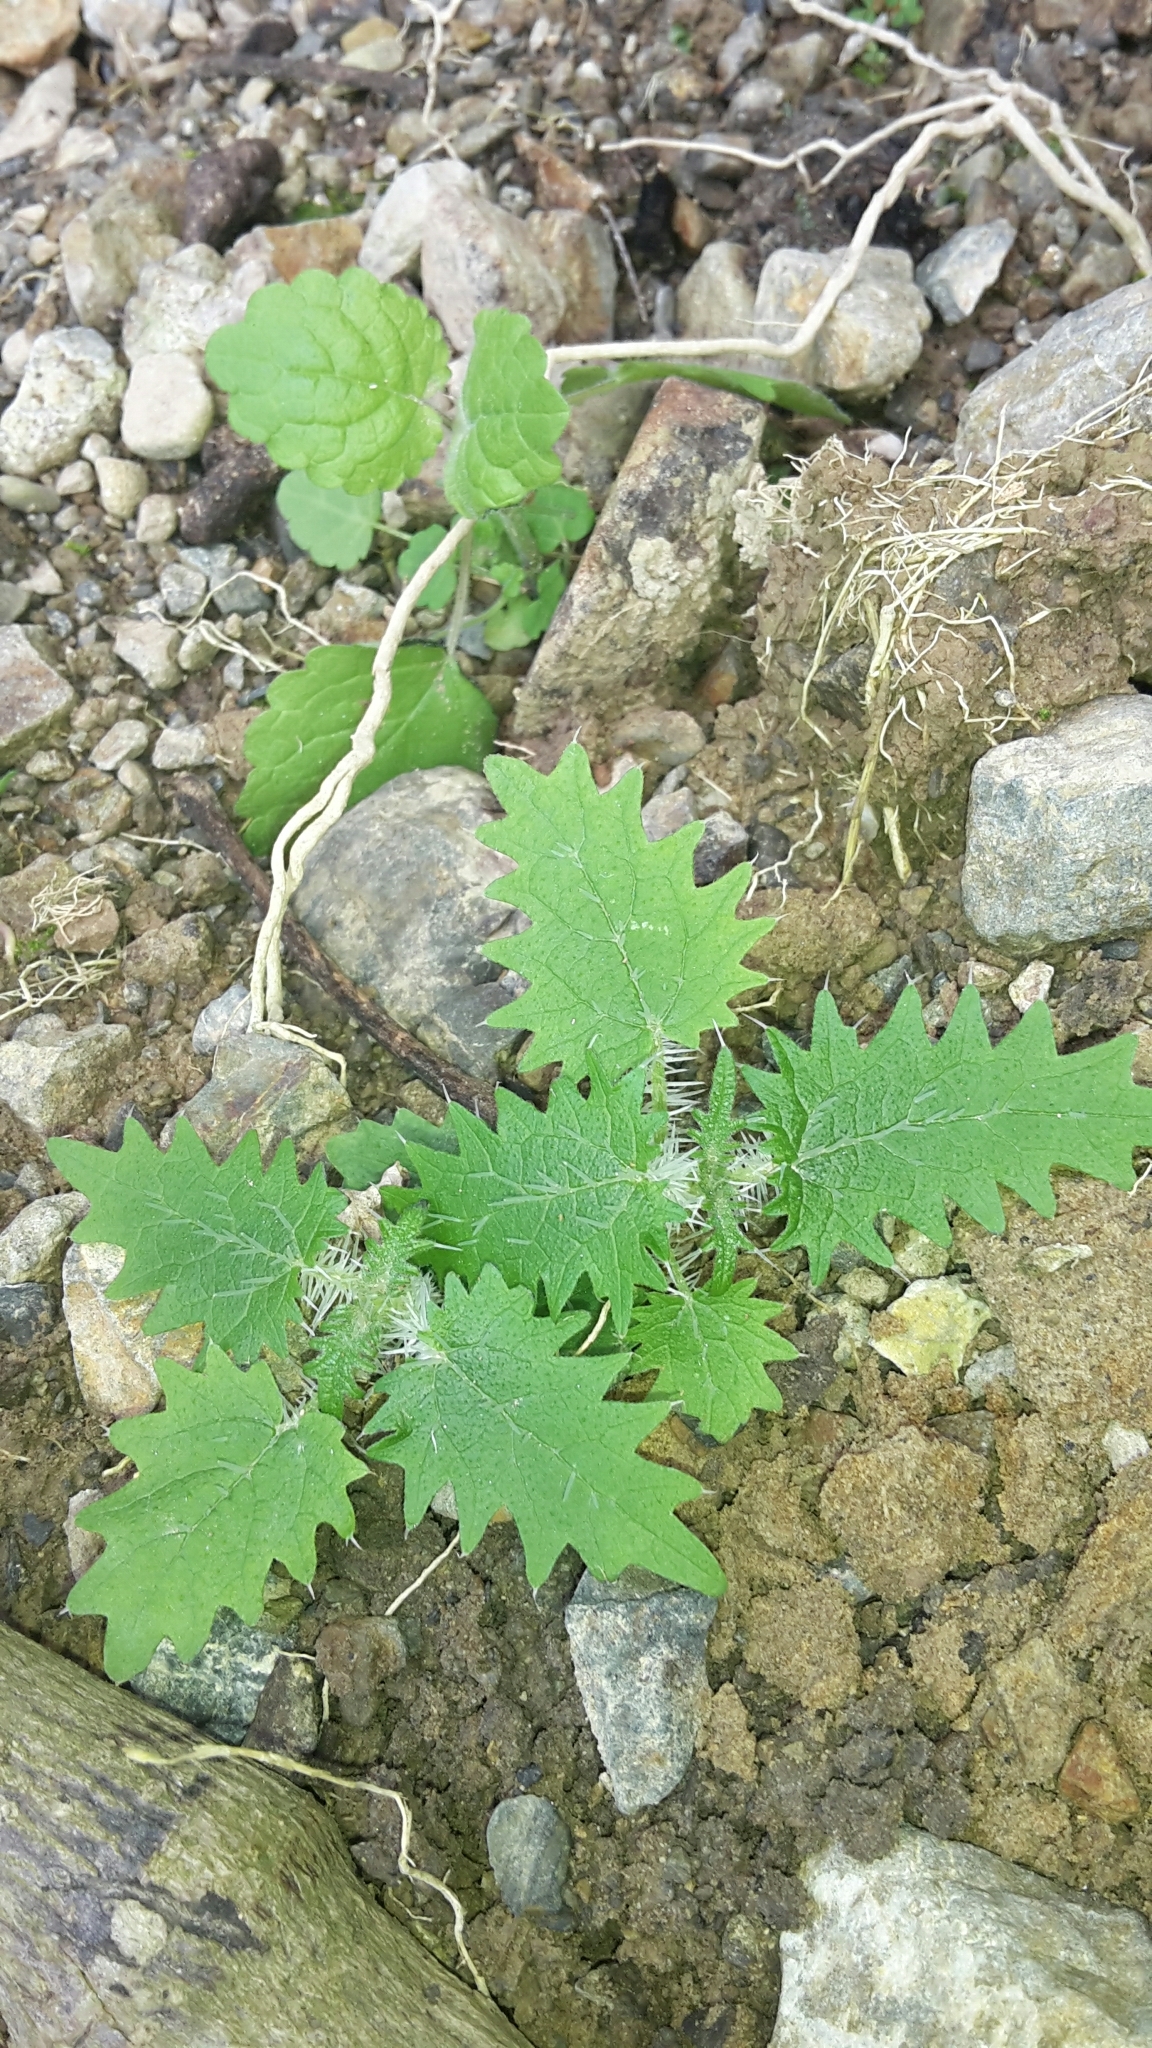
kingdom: Plantae
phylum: Tracheophyta
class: Magnoliopsida
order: Rosales
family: Urticaceae
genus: Urtica
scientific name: Urtica ferox
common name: Tree nettle
